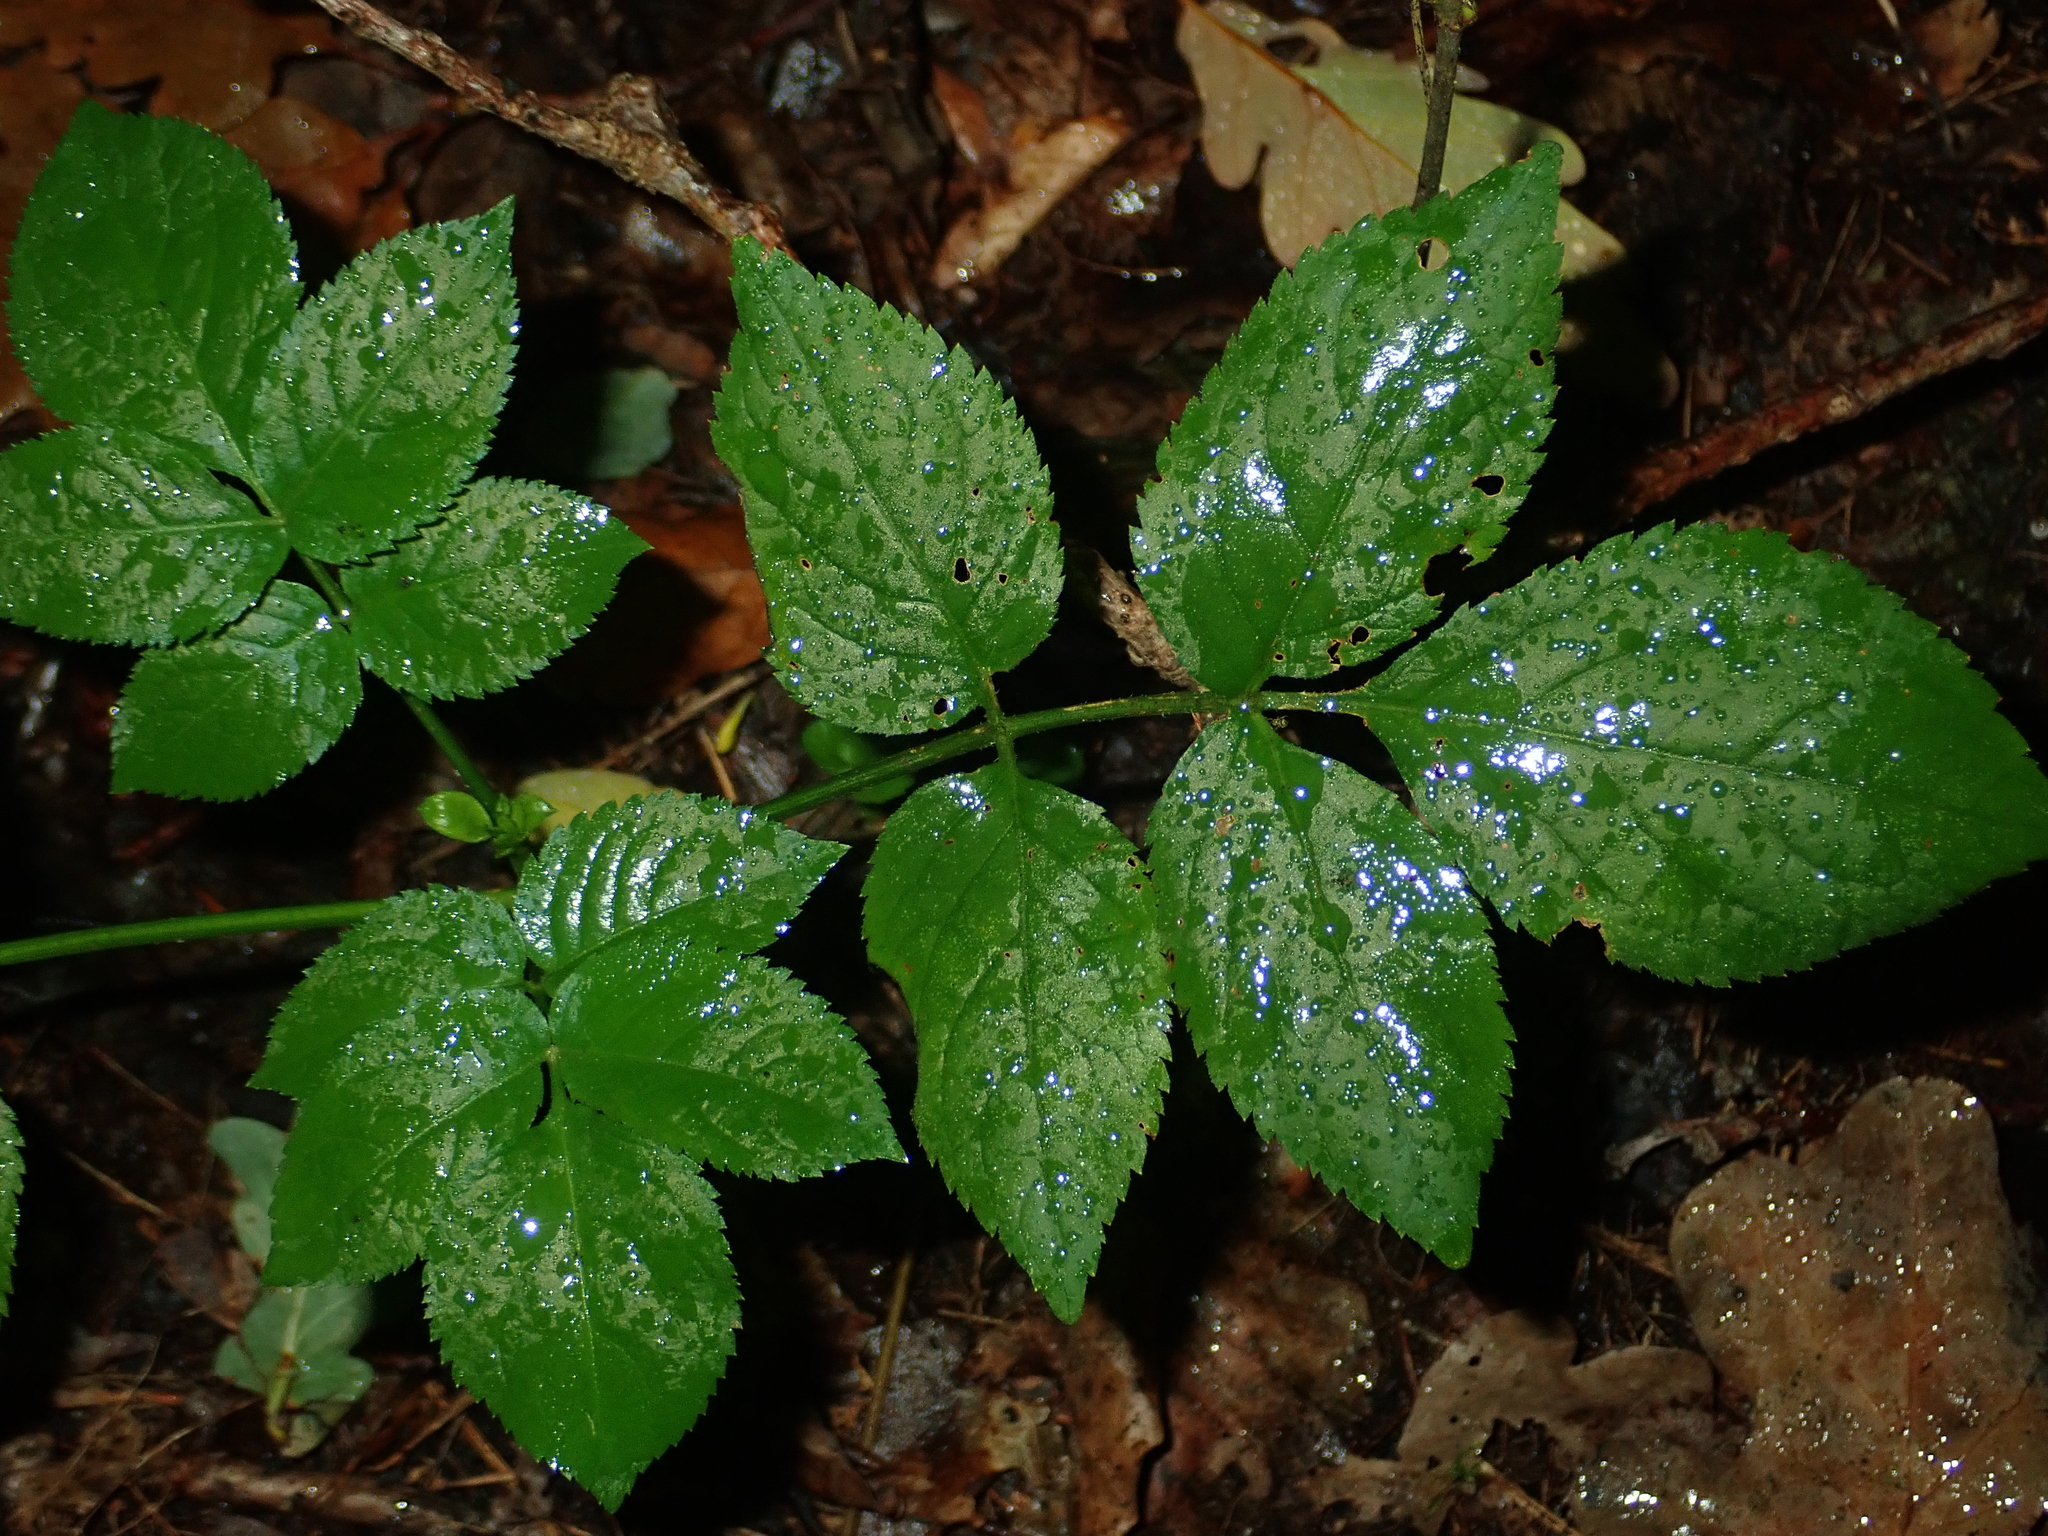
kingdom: Plantae
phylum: Tracheophyta
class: Magnoliopsida
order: Dipsacales
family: Viburnaceae
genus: Sambucus
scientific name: Sambucus nigra
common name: Elder
